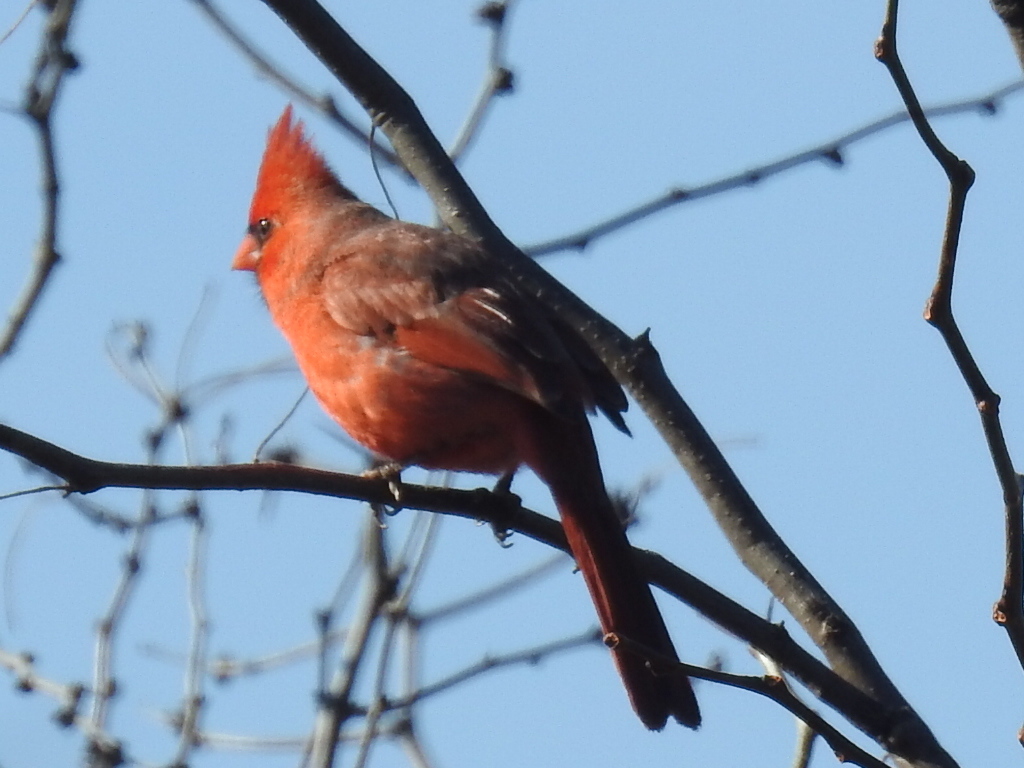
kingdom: Animalia
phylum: Chordata
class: Aves
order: Passeriformes
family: Cardinalidae
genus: Cardinalis
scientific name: Cardinalis cardinalis
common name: Northern cardinal
